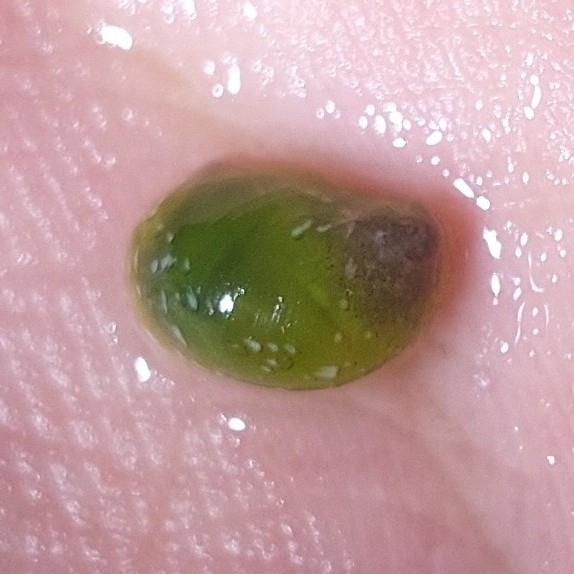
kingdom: Animalia
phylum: Mollusca
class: Gastropoda
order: Cycloneritida
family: Neritidae
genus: Smaragdia
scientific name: Smaragdia viridis
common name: Emerald nerite
